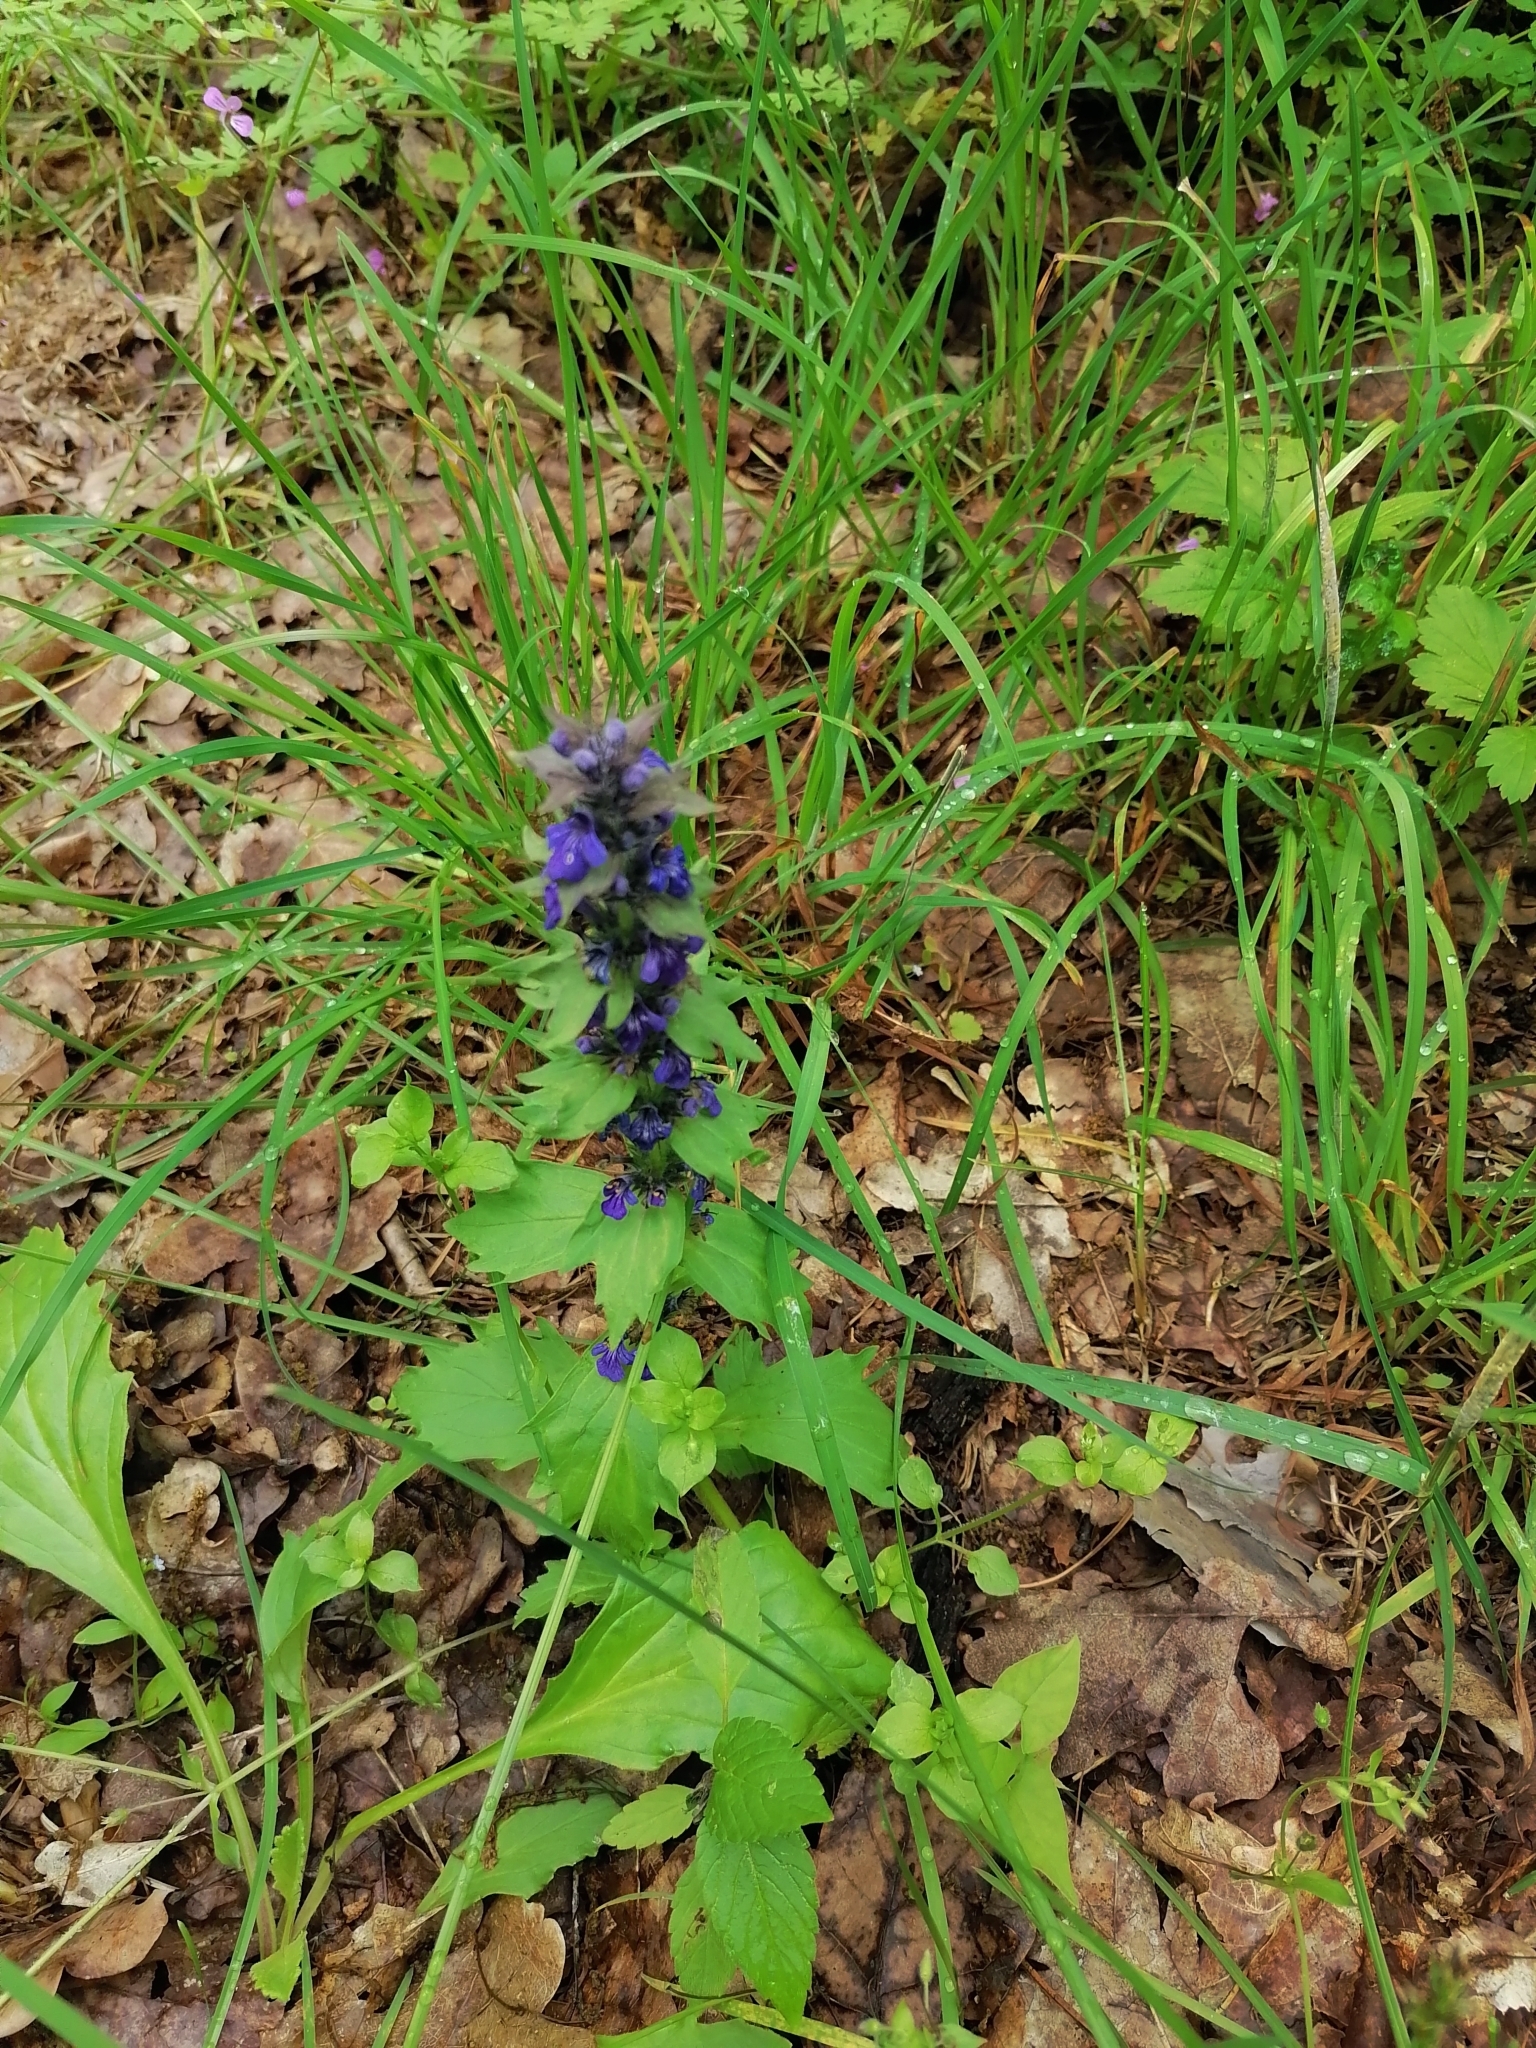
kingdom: Plantae
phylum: Tracheophyta
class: Magnoliopsida
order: Lamiales
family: Lamiaceae
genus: Ajuga
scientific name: Ajuga genevensis
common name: Blue bugle
